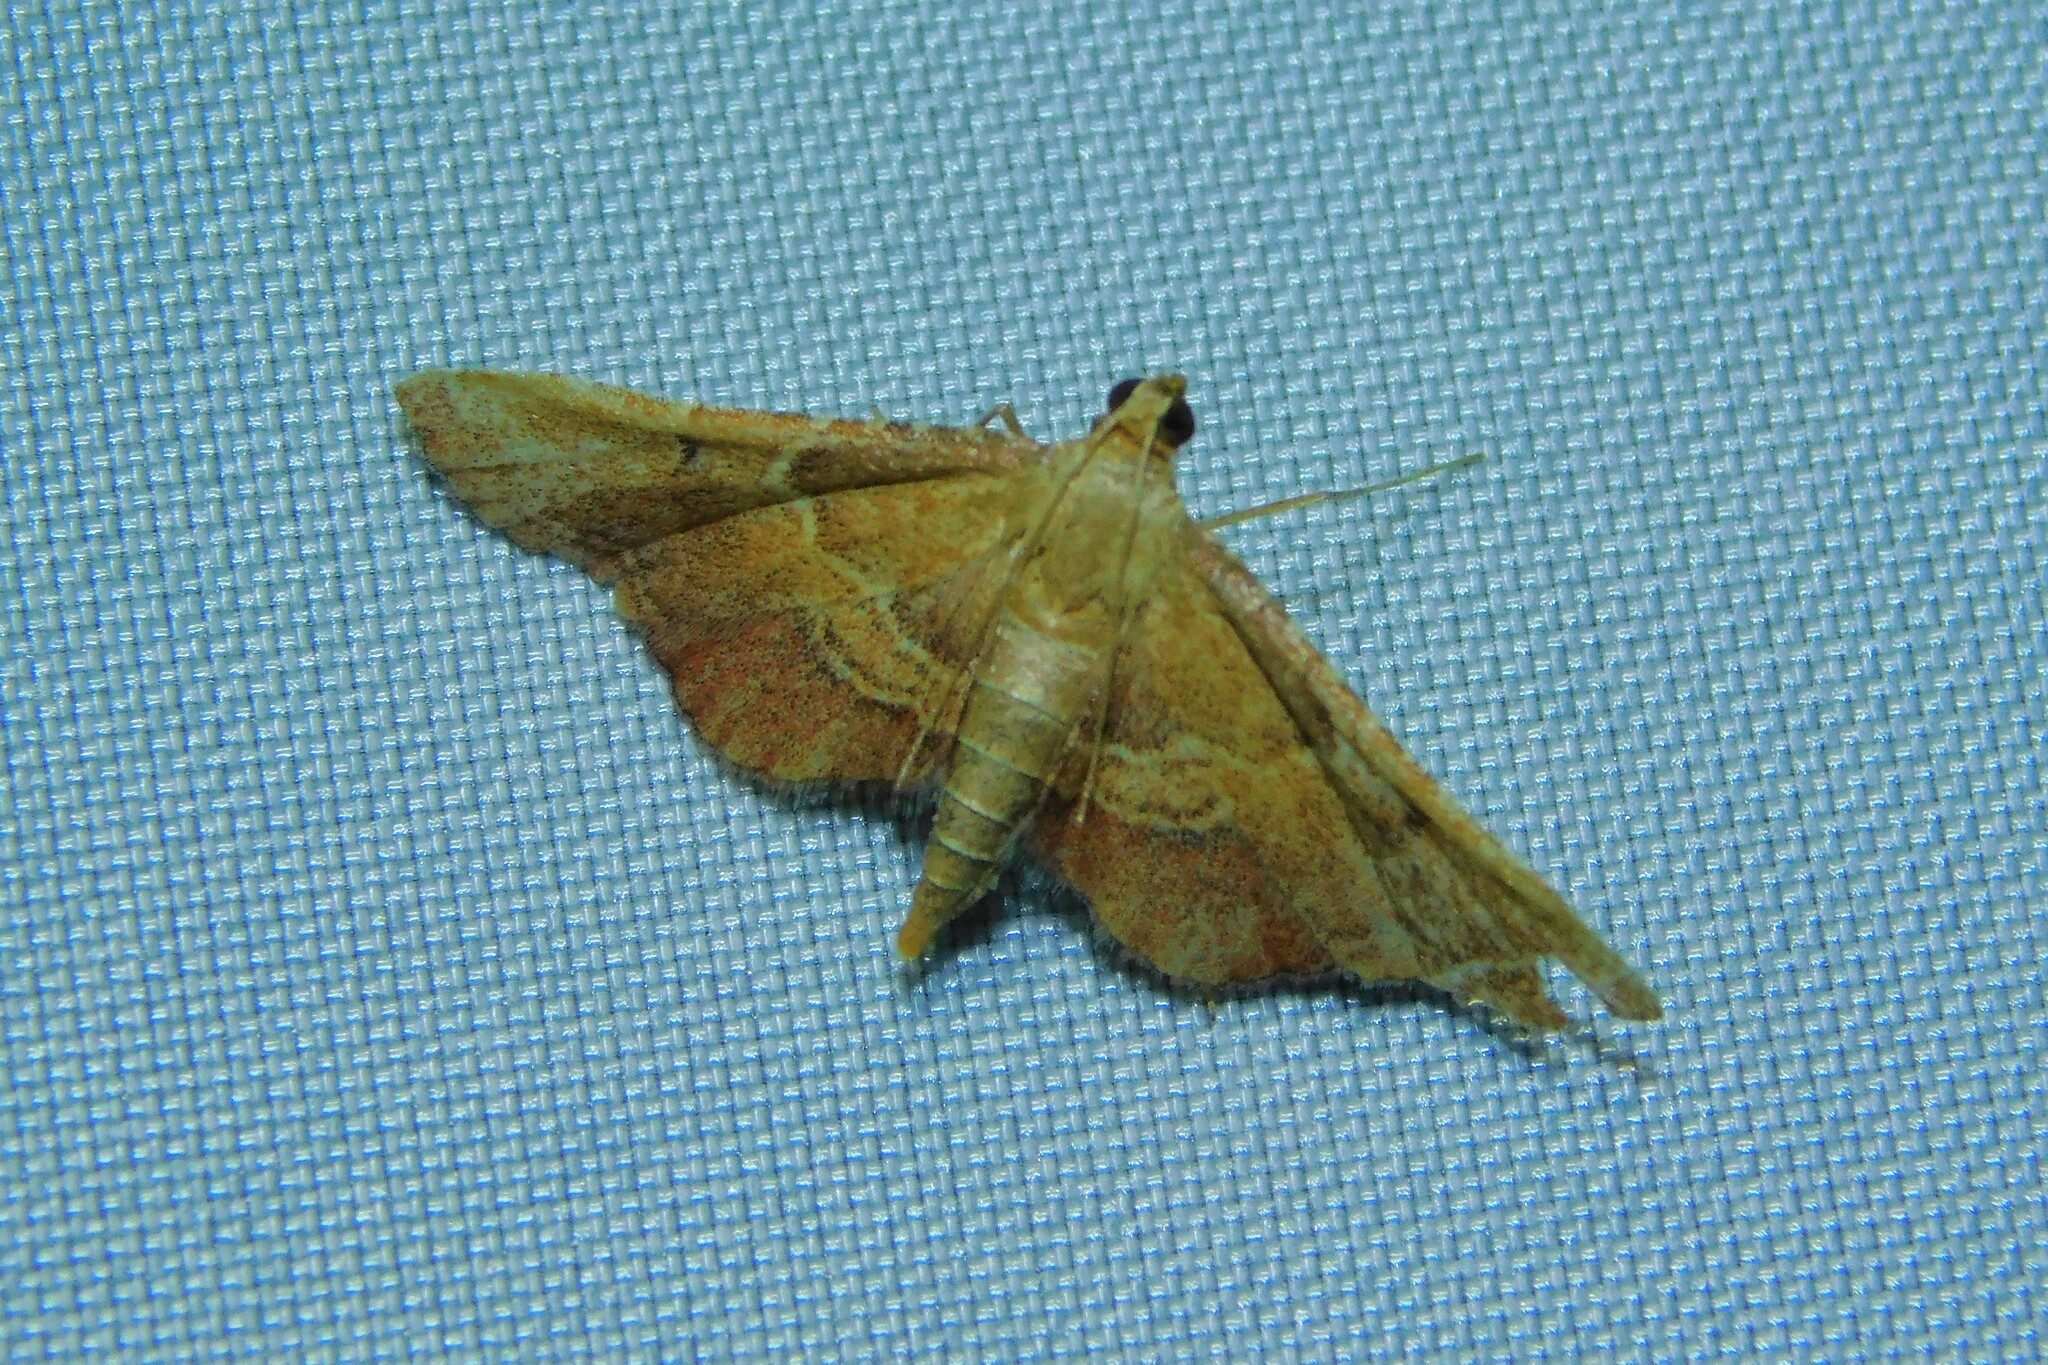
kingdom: Animalia
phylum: Arthropoda
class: Insecta
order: Lepidoptera
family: Pyralidae
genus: Endotricha
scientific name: Endotricha flammealis
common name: Rosy tabby
